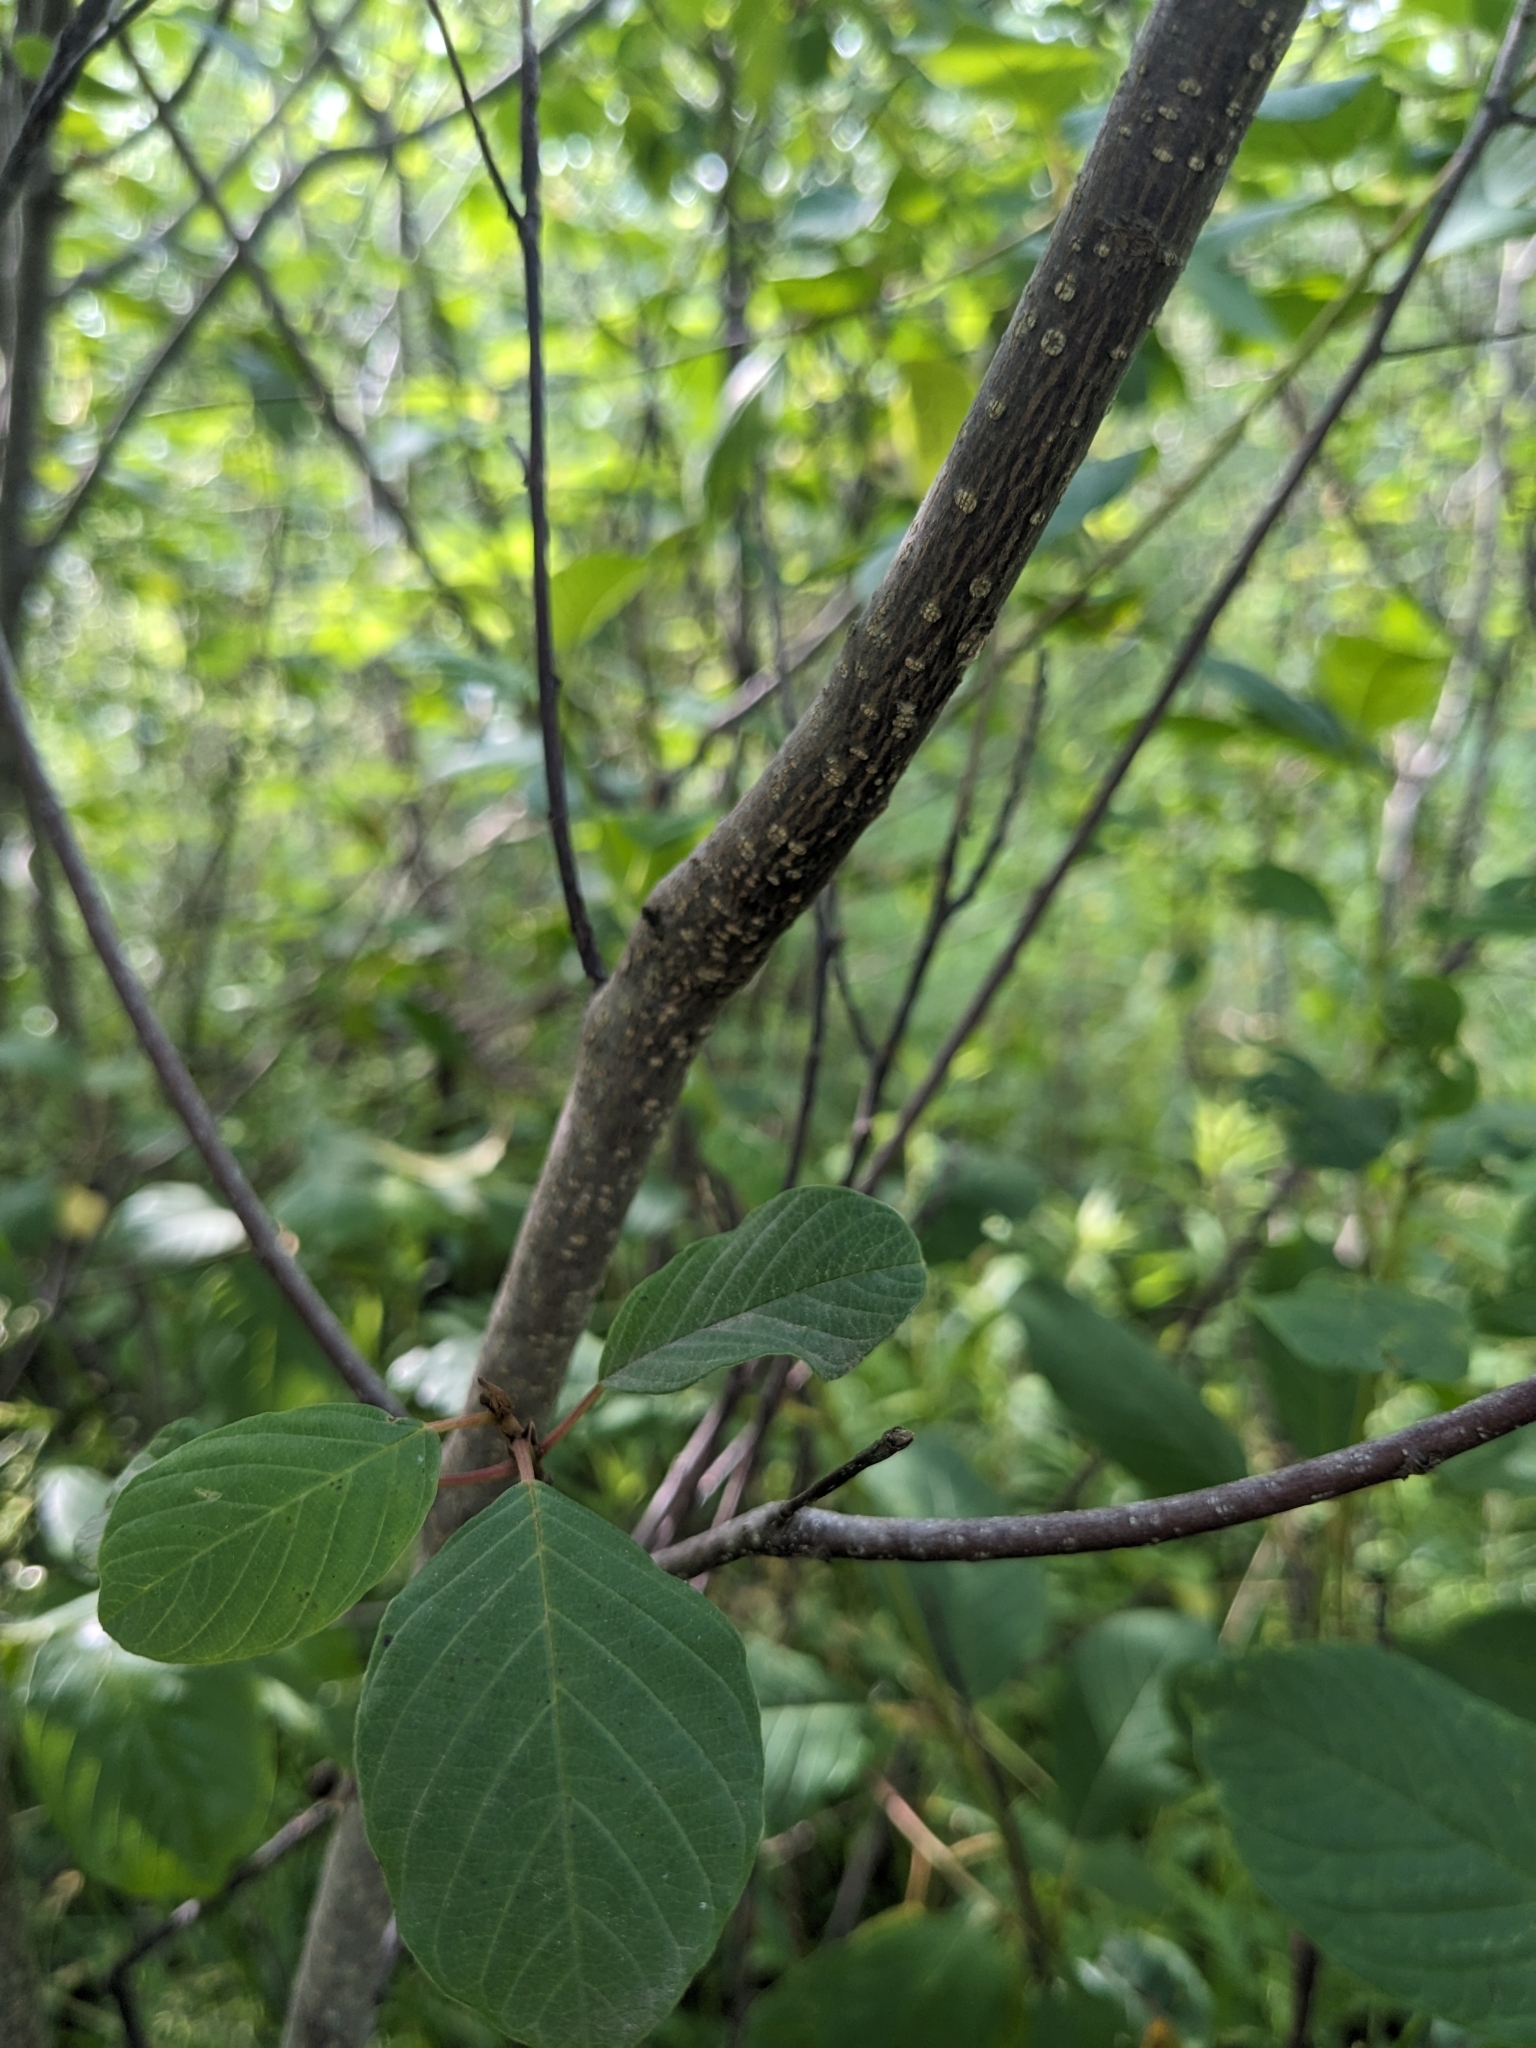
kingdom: Plantae
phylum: Tracheophyta
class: Magnoliopsida
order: Rosales
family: Rhamnaceae
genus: Frangula
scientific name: Frangula alnus
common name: Alder buckthorn
